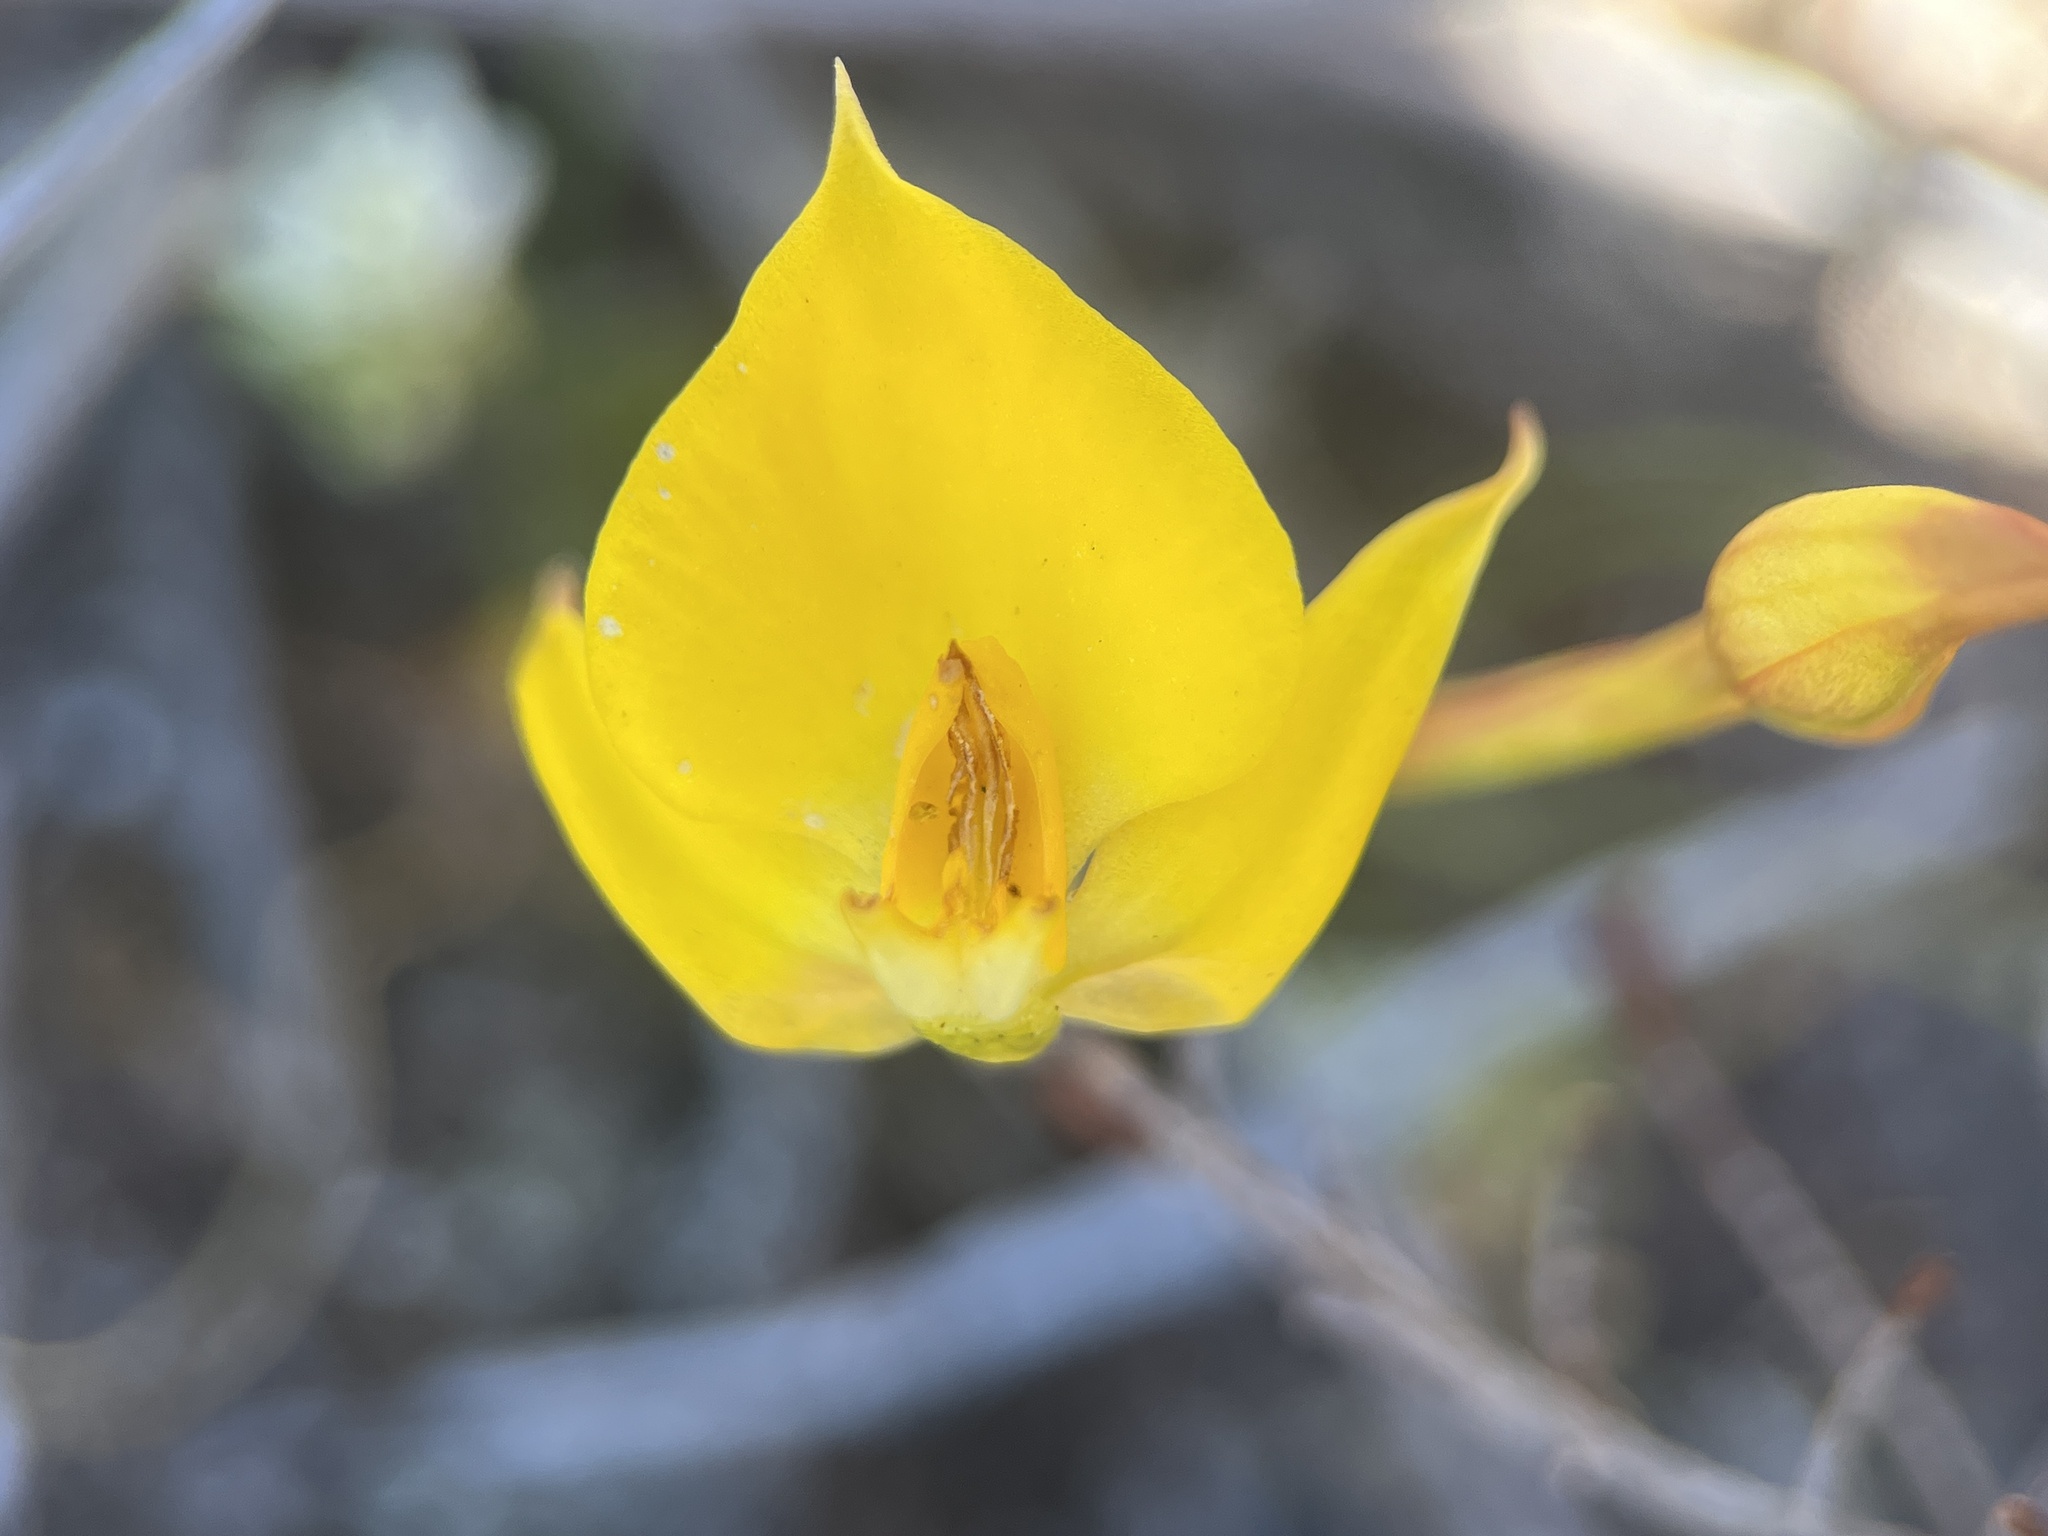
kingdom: Plantae
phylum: Tracheophyta
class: Liliopsida
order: Asparagales
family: Orchidaceae
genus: Disa
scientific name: Disa tenuifolia
